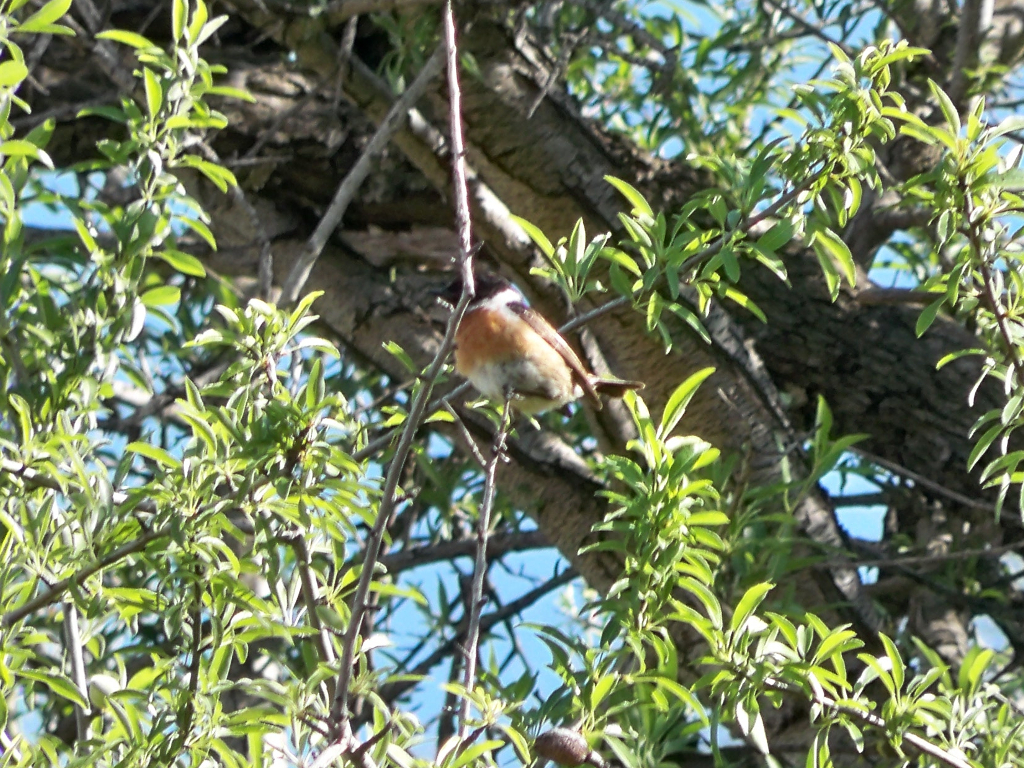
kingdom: Animalia
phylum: Chordata
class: Aves
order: Passeriformes
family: Muscicapidae
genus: Saxicola
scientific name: Saxicola rubicola
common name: European stonechat
